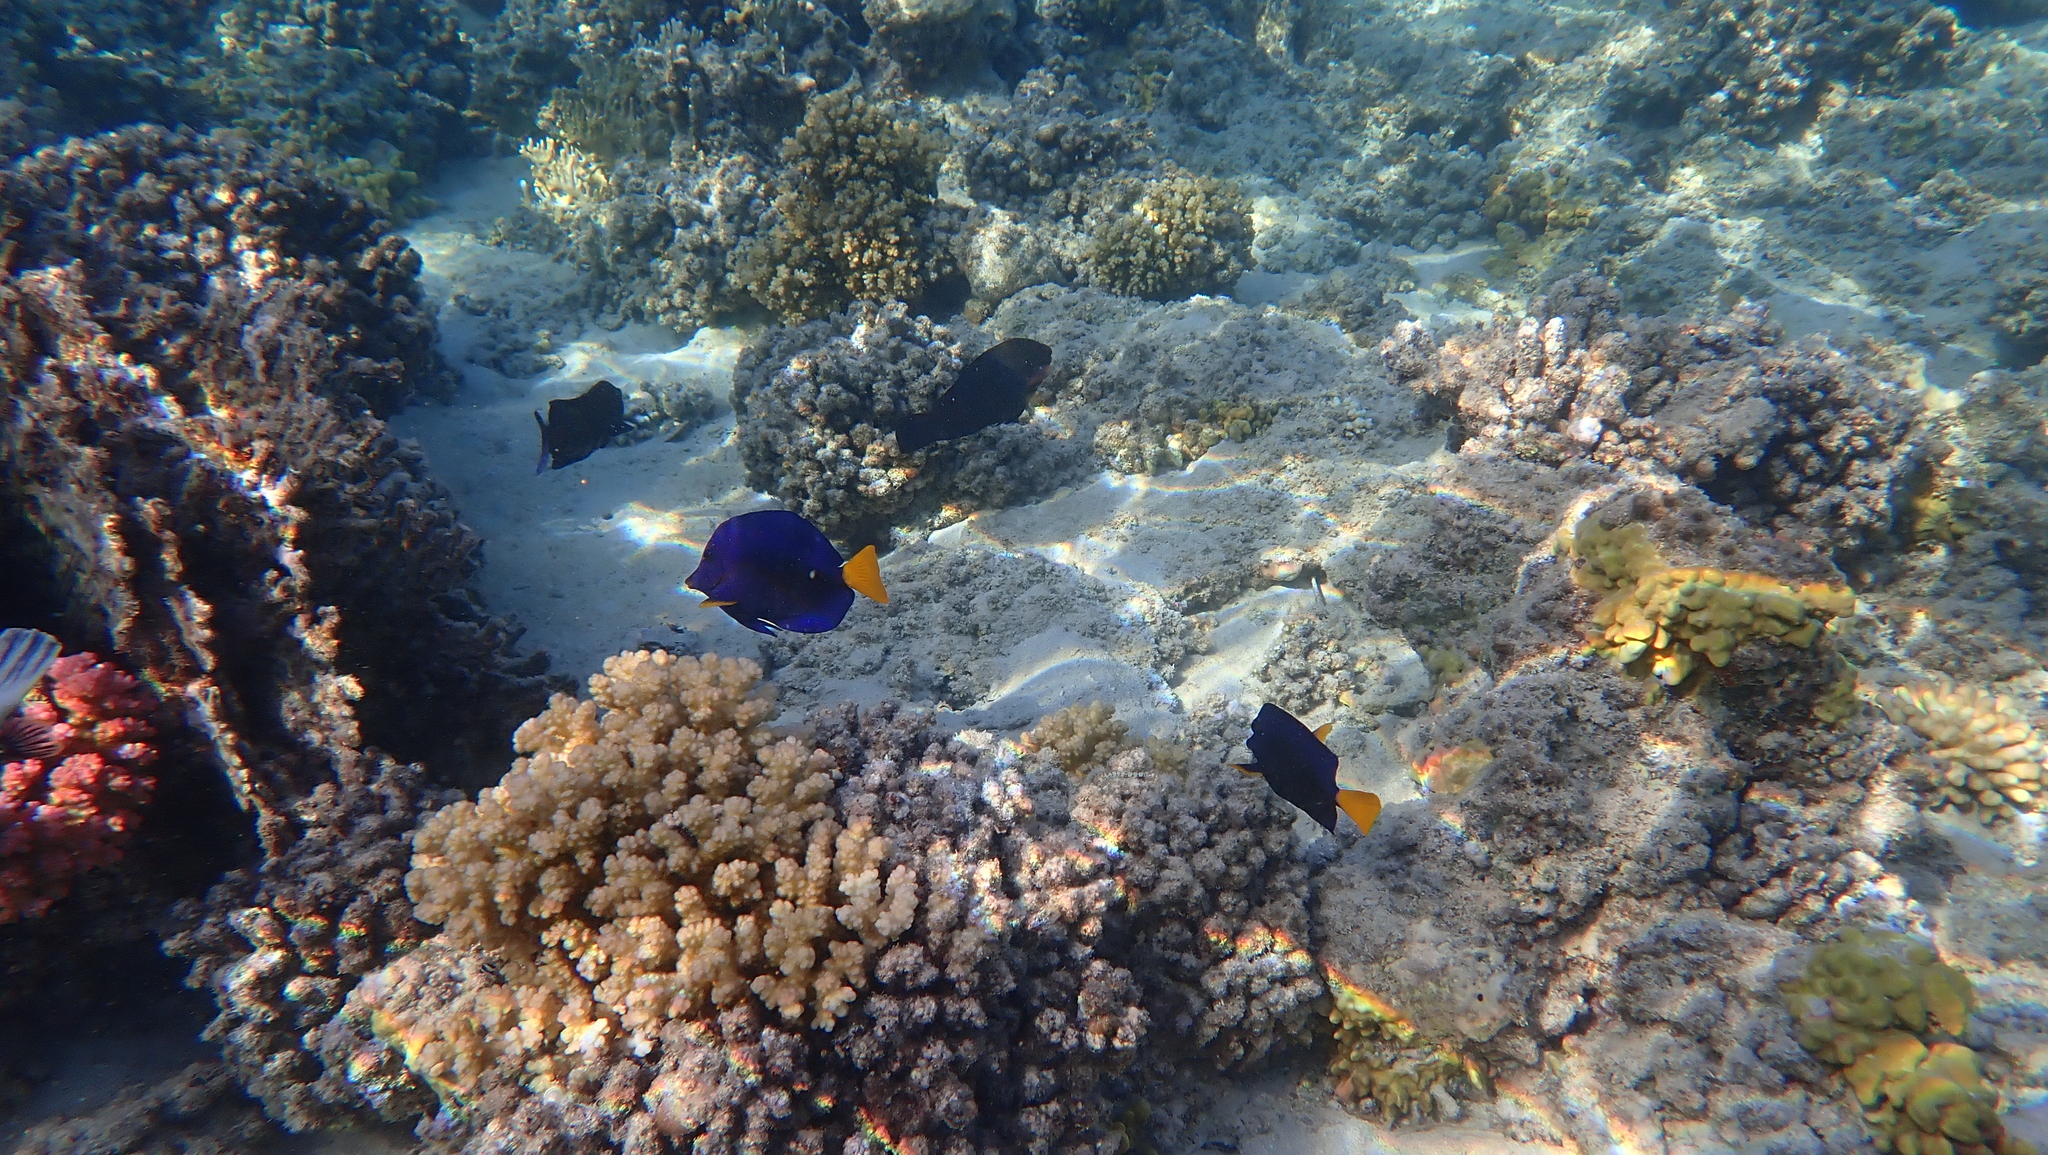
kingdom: Animalia
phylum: Chordata
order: Perciformes
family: Acanthuridae
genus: Zebrasoma
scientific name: Zebrasoma xanthurum
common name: Purple tang
